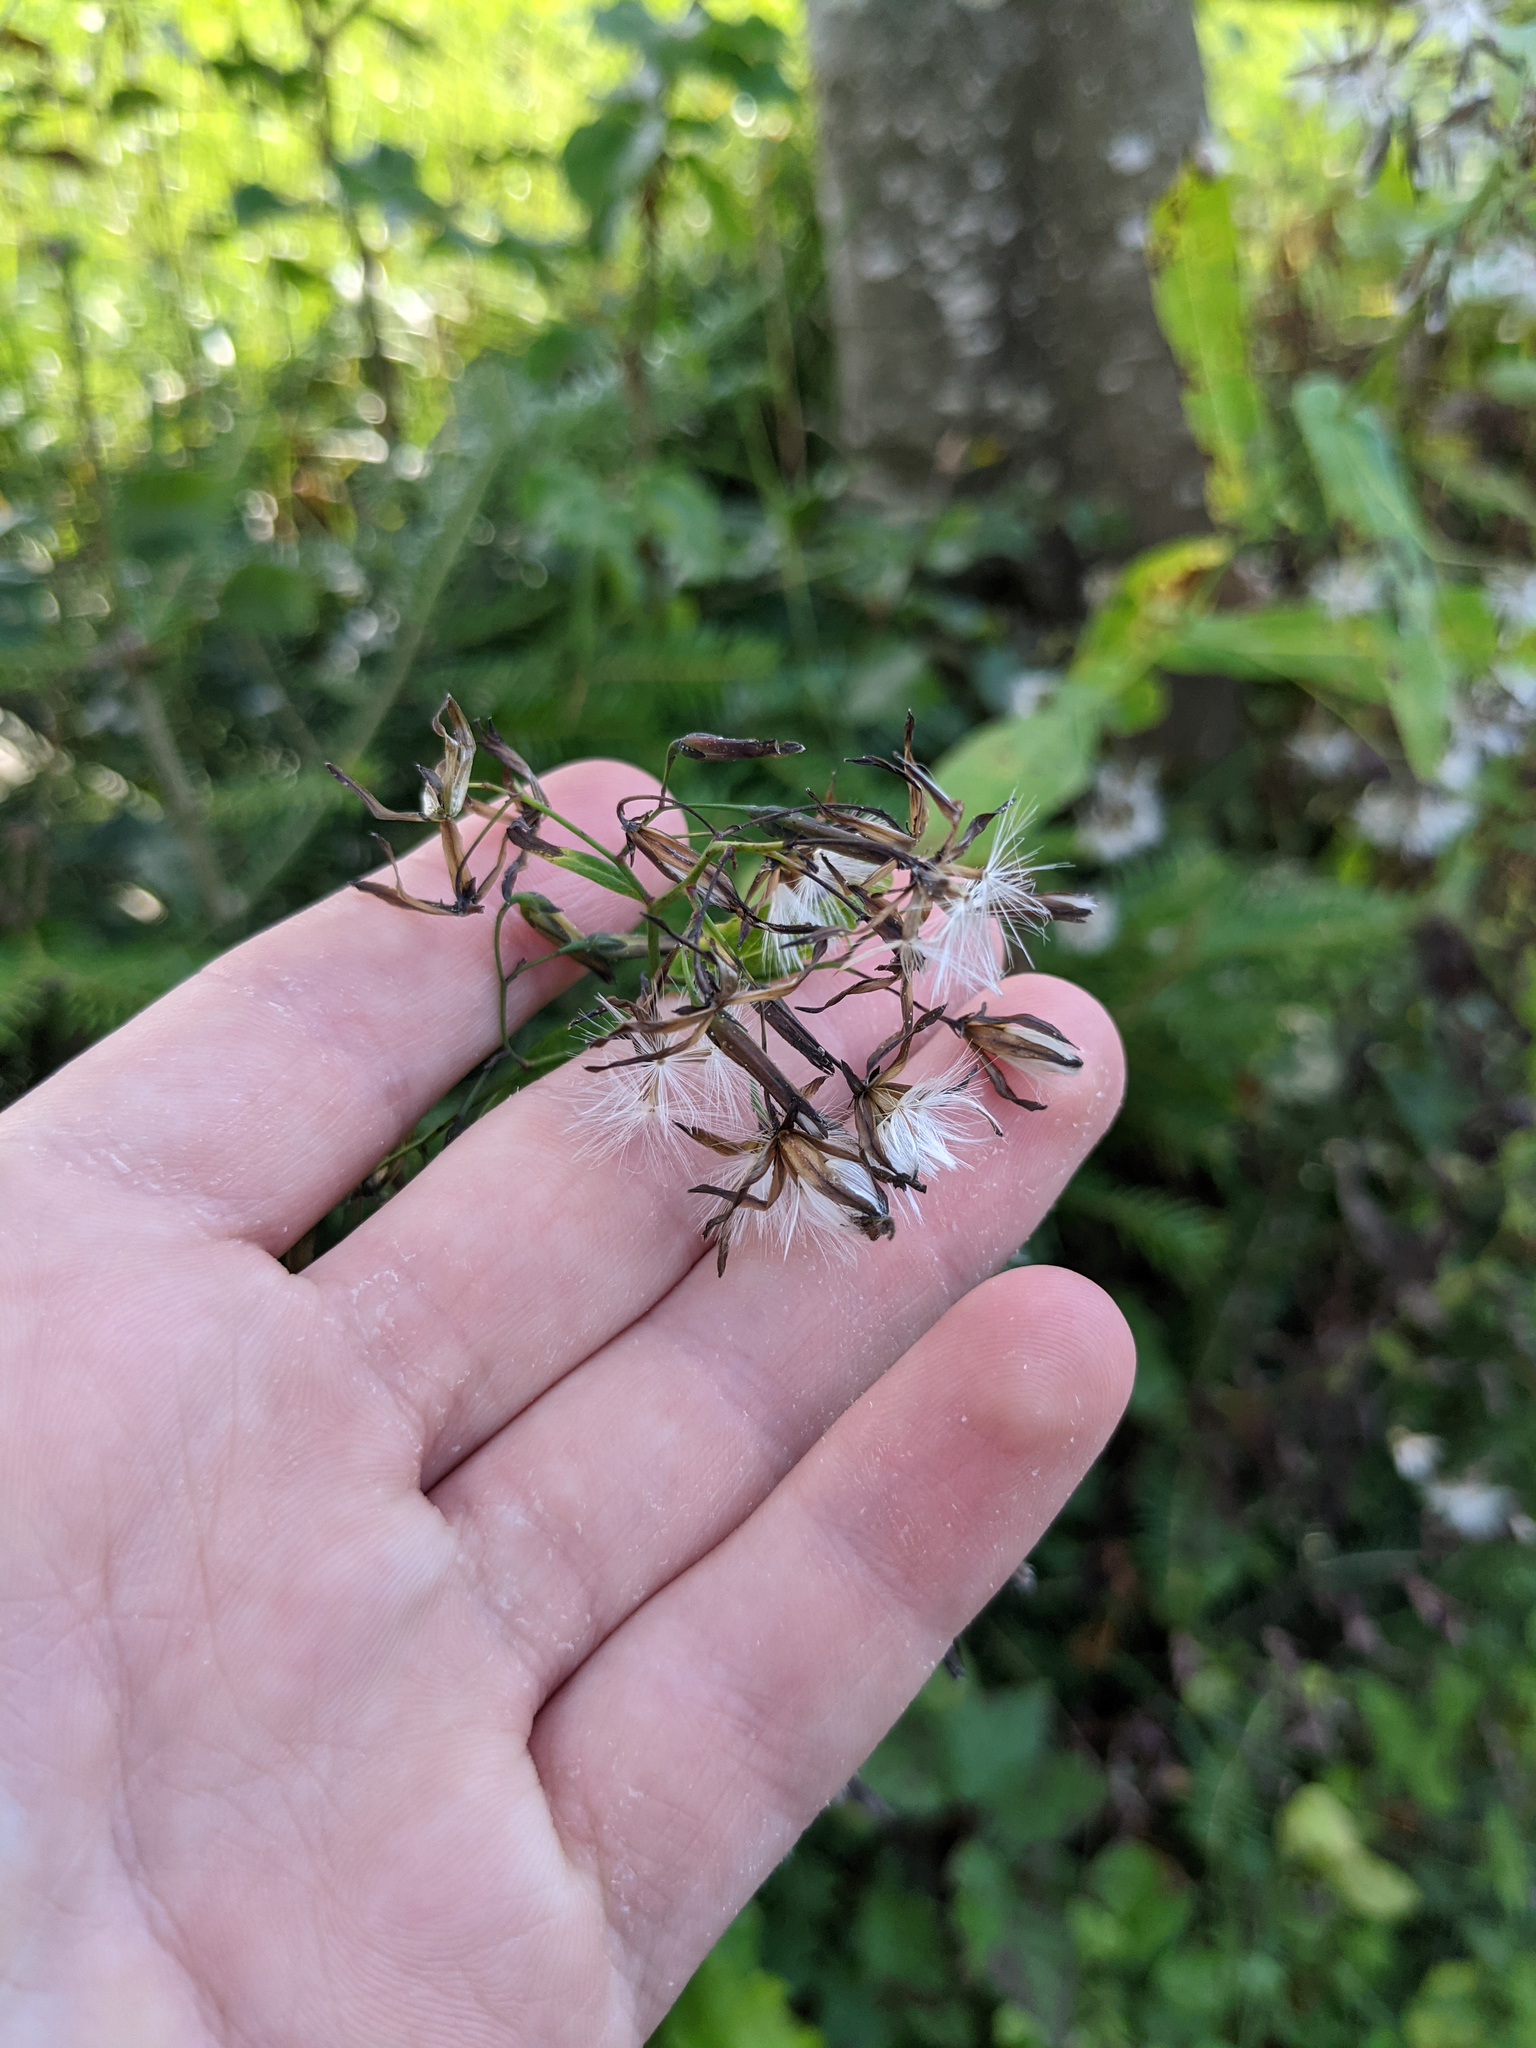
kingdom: Plantae
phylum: Tracheophyta
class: Magnoliopsida
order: Asterales
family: Asteraceae
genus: Prenanthes
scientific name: Prenanthes purpurea
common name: Purple lettuce
